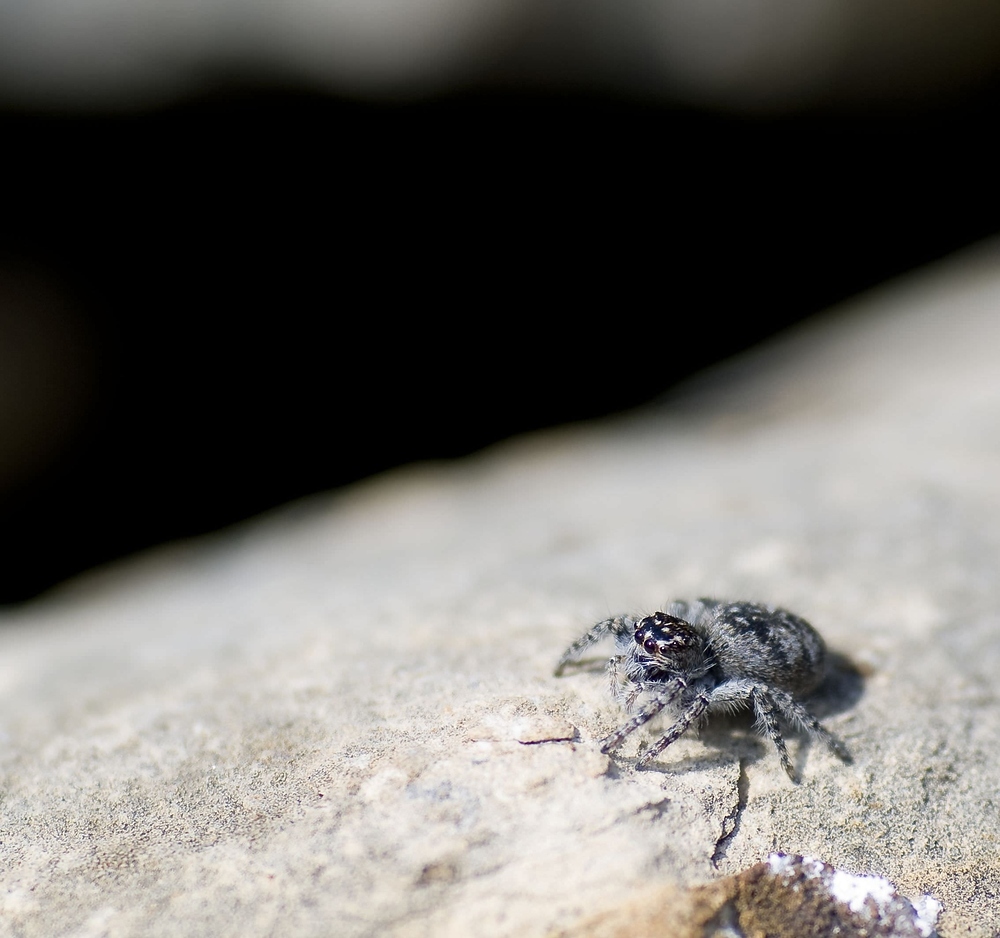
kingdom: Animalia
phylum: Arthropoda
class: Arachnida
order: Araneae
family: Salticidae
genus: Philaeus
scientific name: Philaeus chrysops
